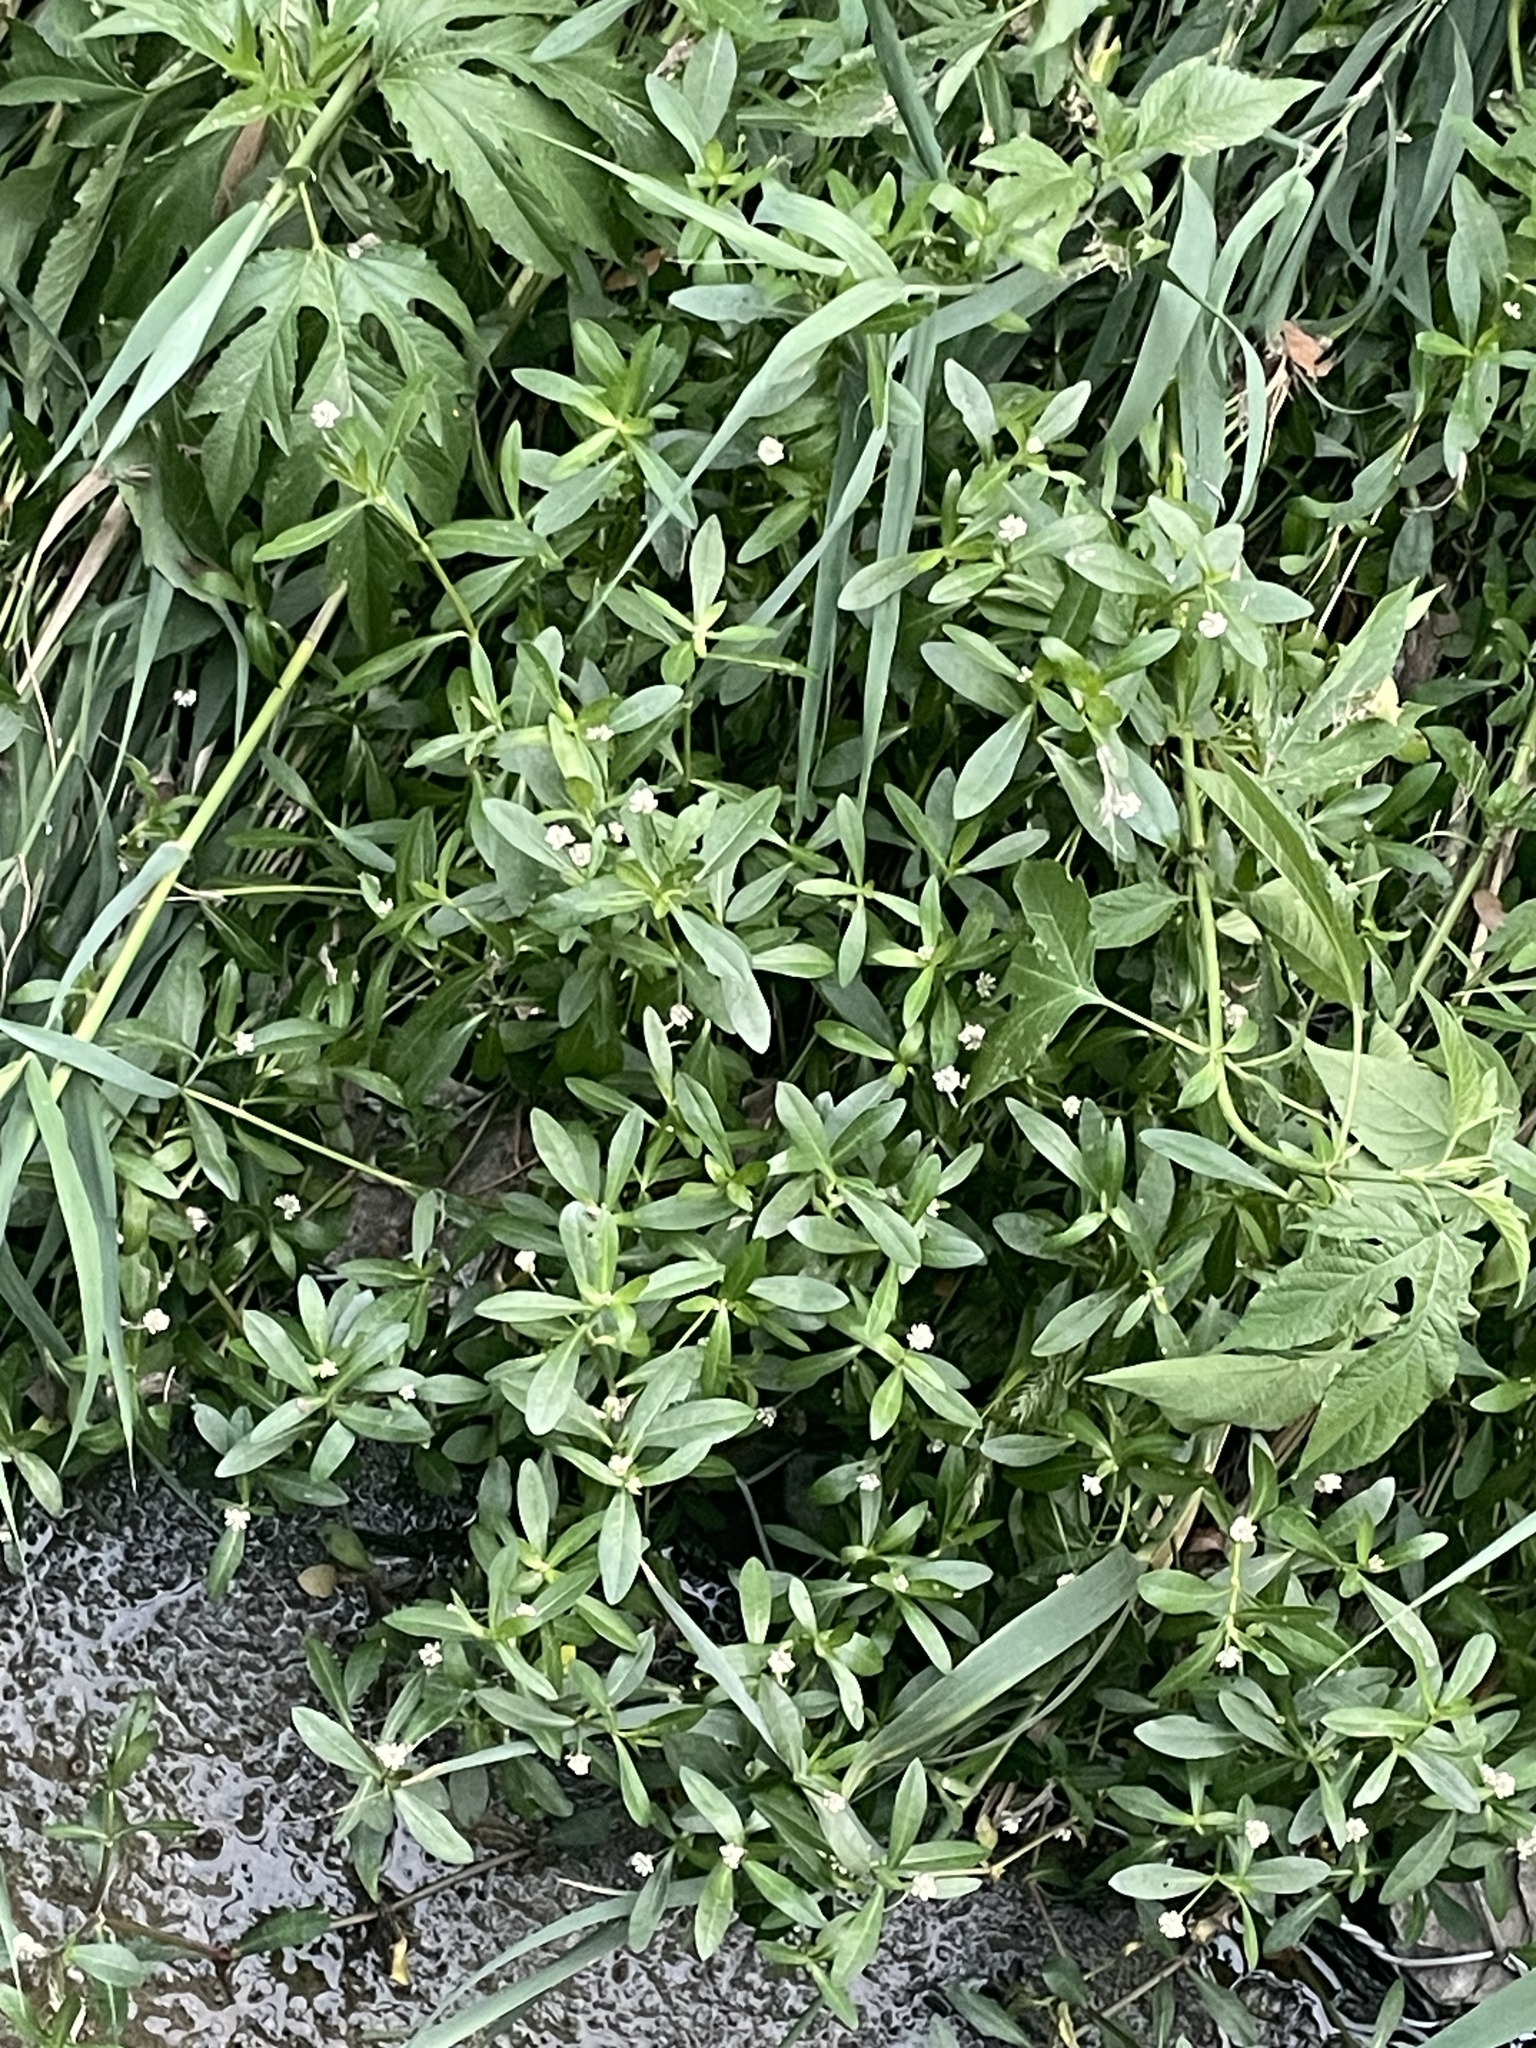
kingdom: Plantae
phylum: Tracheophyta
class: Magnoliopsida
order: Caryophyllales
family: Amaranthaceae
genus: Alternanthera
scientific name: Alternanthera philoxeroides
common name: Alligatorweed
